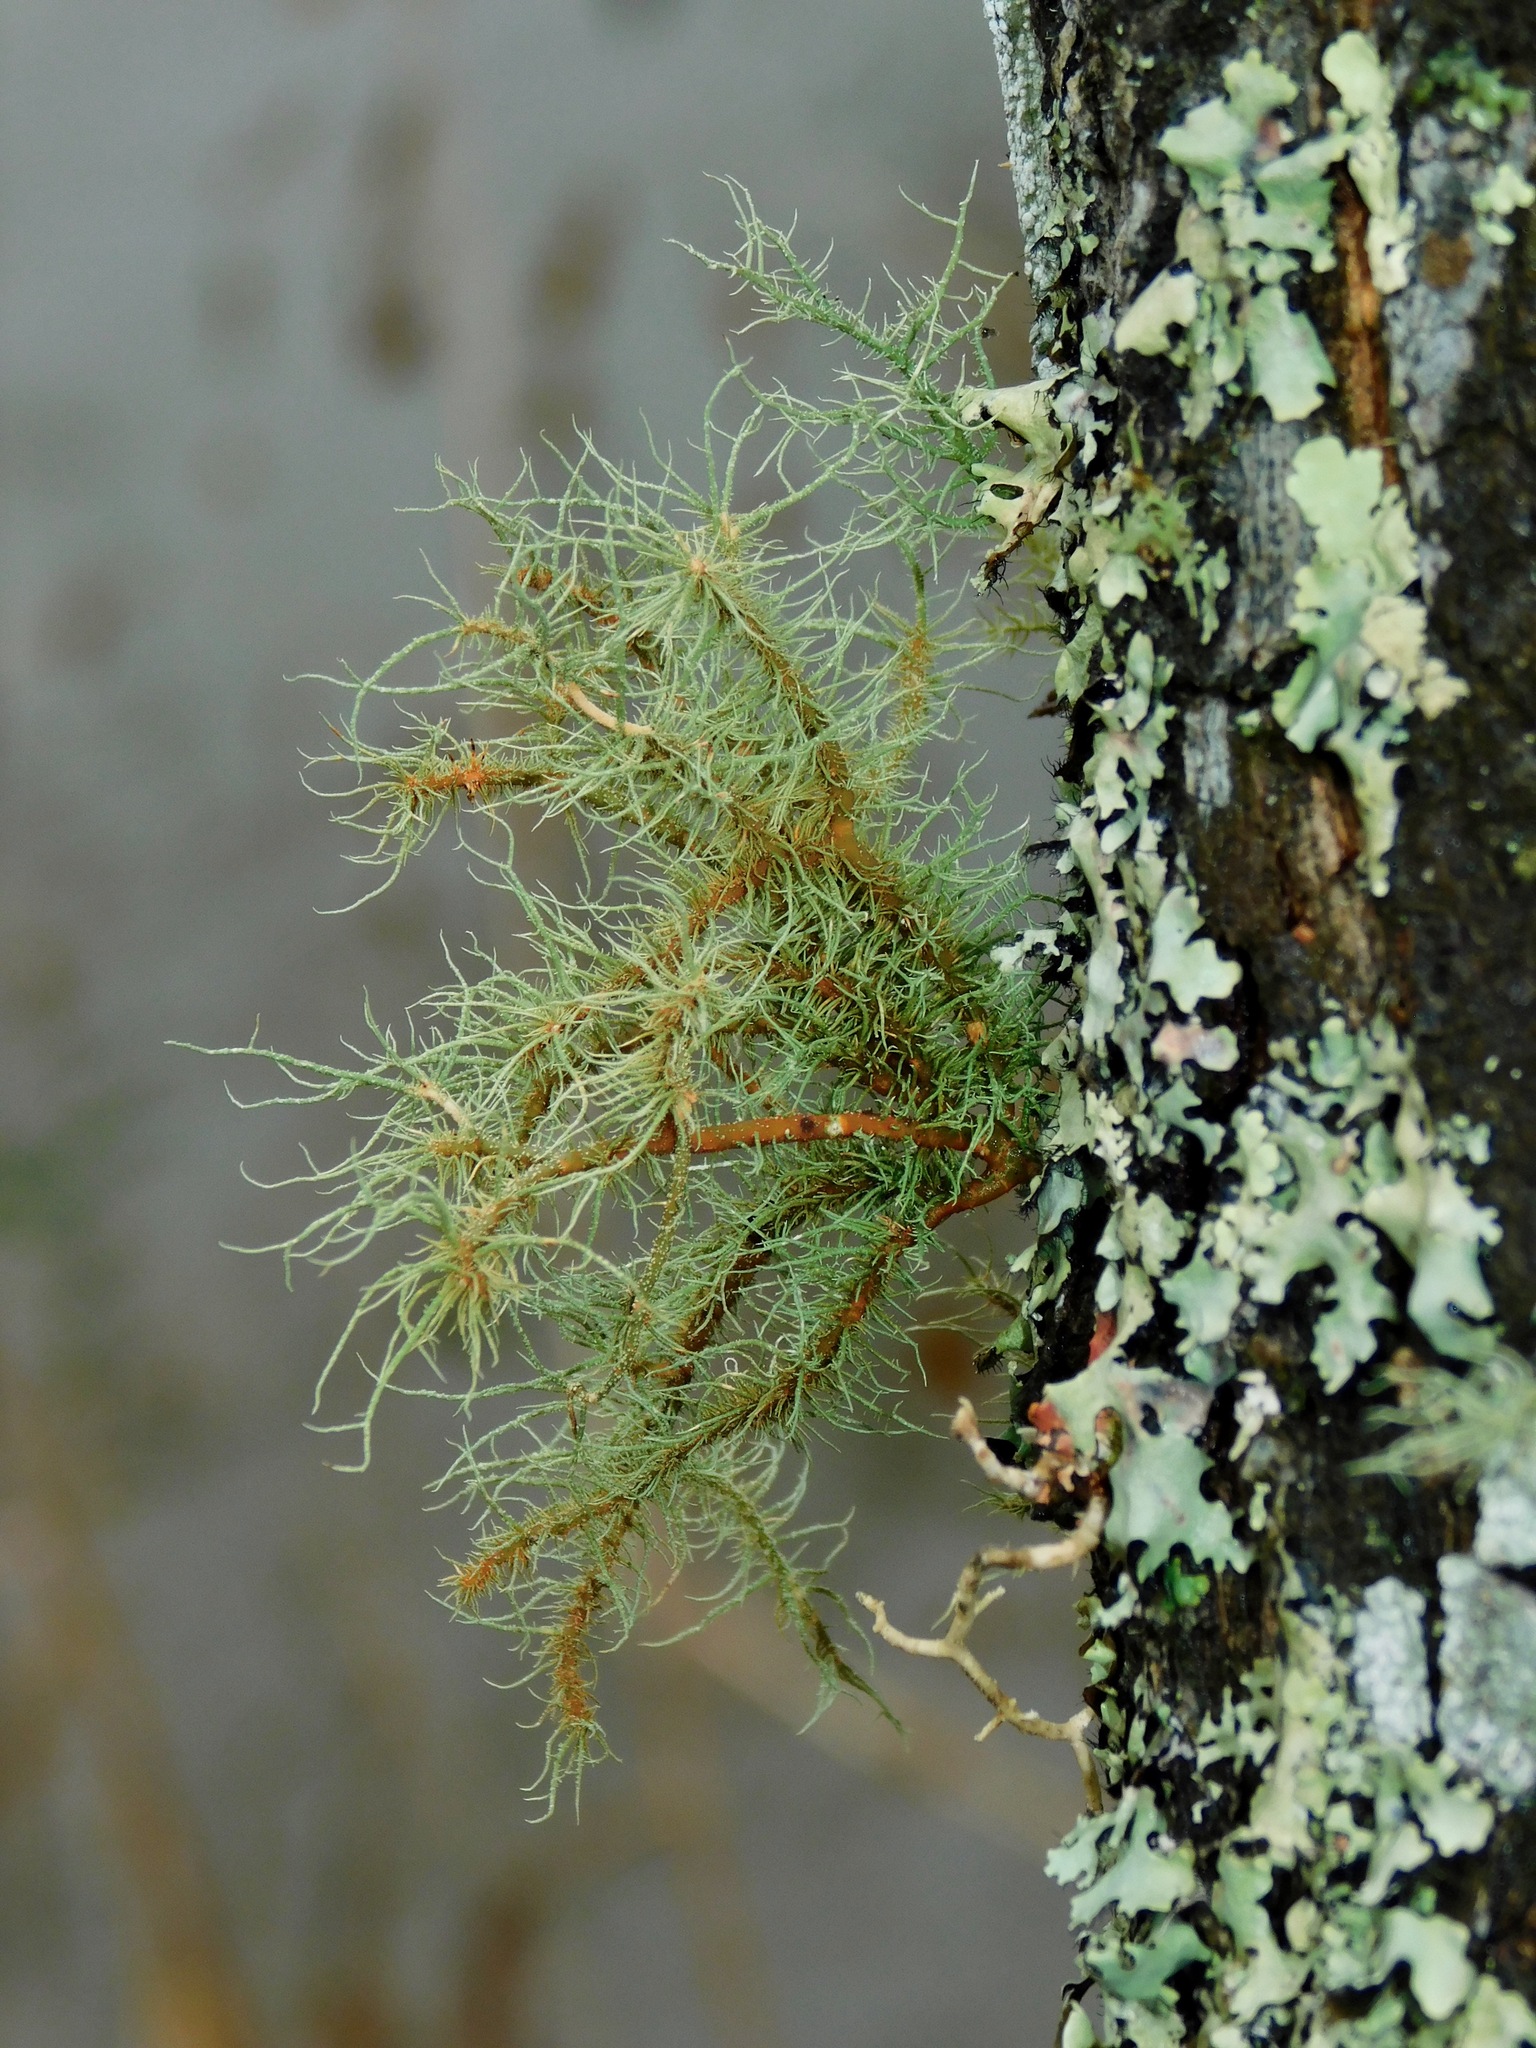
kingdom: Fungi
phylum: Ascomycota
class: Lecanoromycetes
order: Lecanorales
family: Parmeliaceae
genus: Usnea
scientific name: Usnea rubicunda
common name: Red beard lichen
